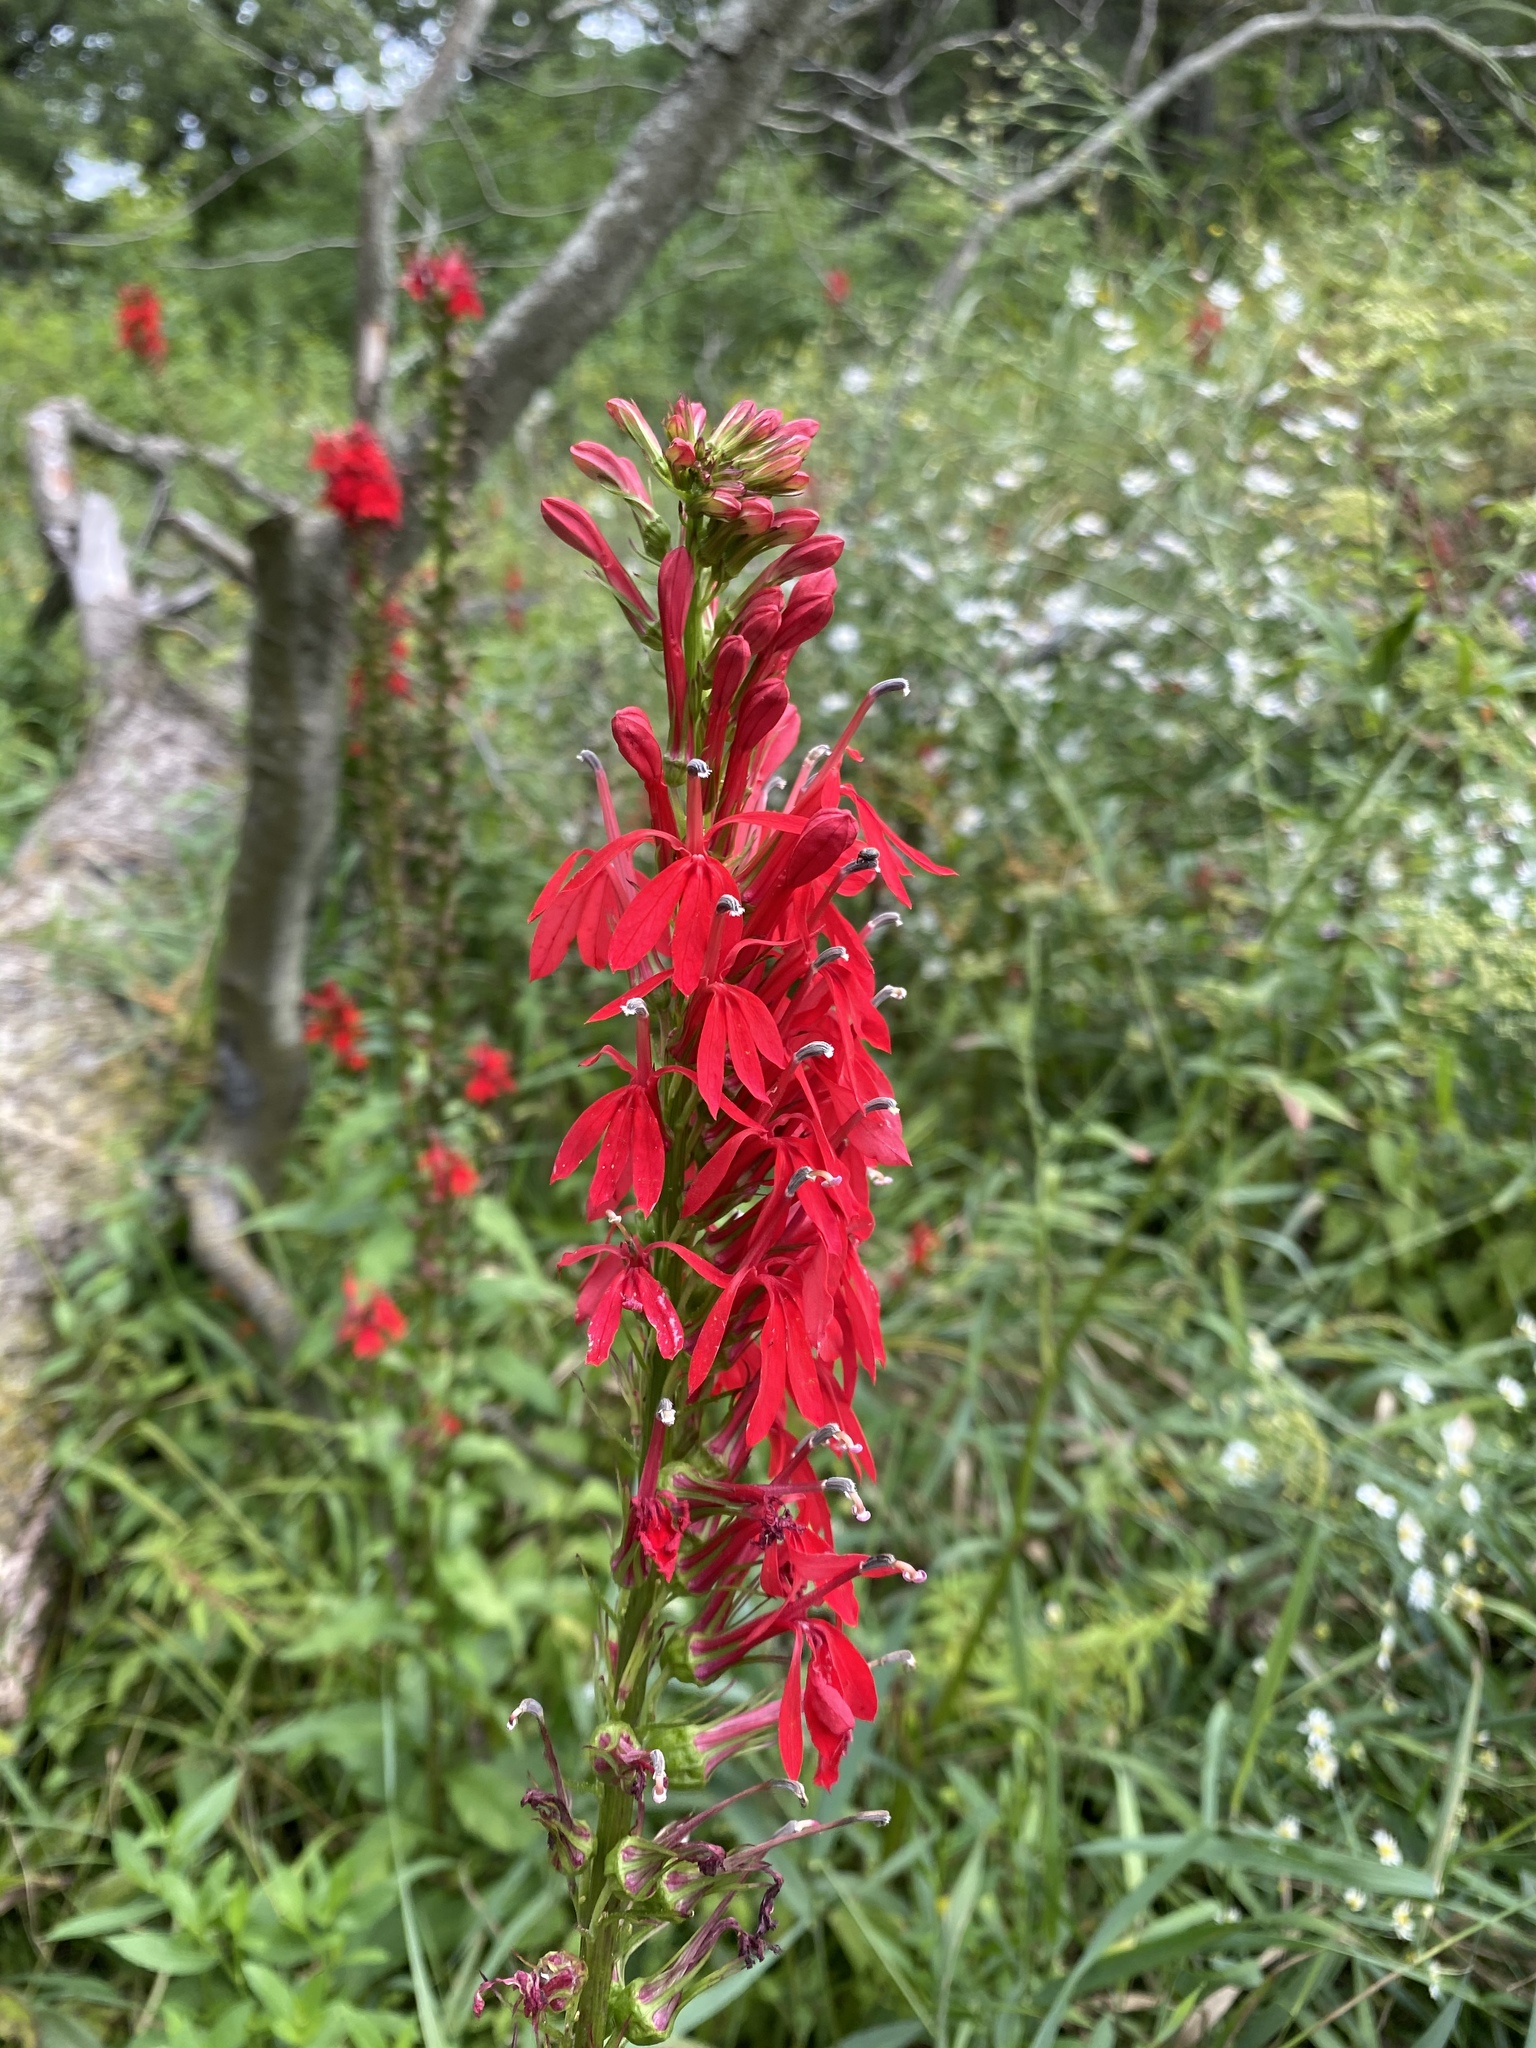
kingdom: Plantae
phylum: Tracheophyta
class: Magnoliopsida
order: Asterales
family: Campanulaceae
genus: Lobelia
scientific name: Lobelia cardinalis
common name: Cardinal flower
